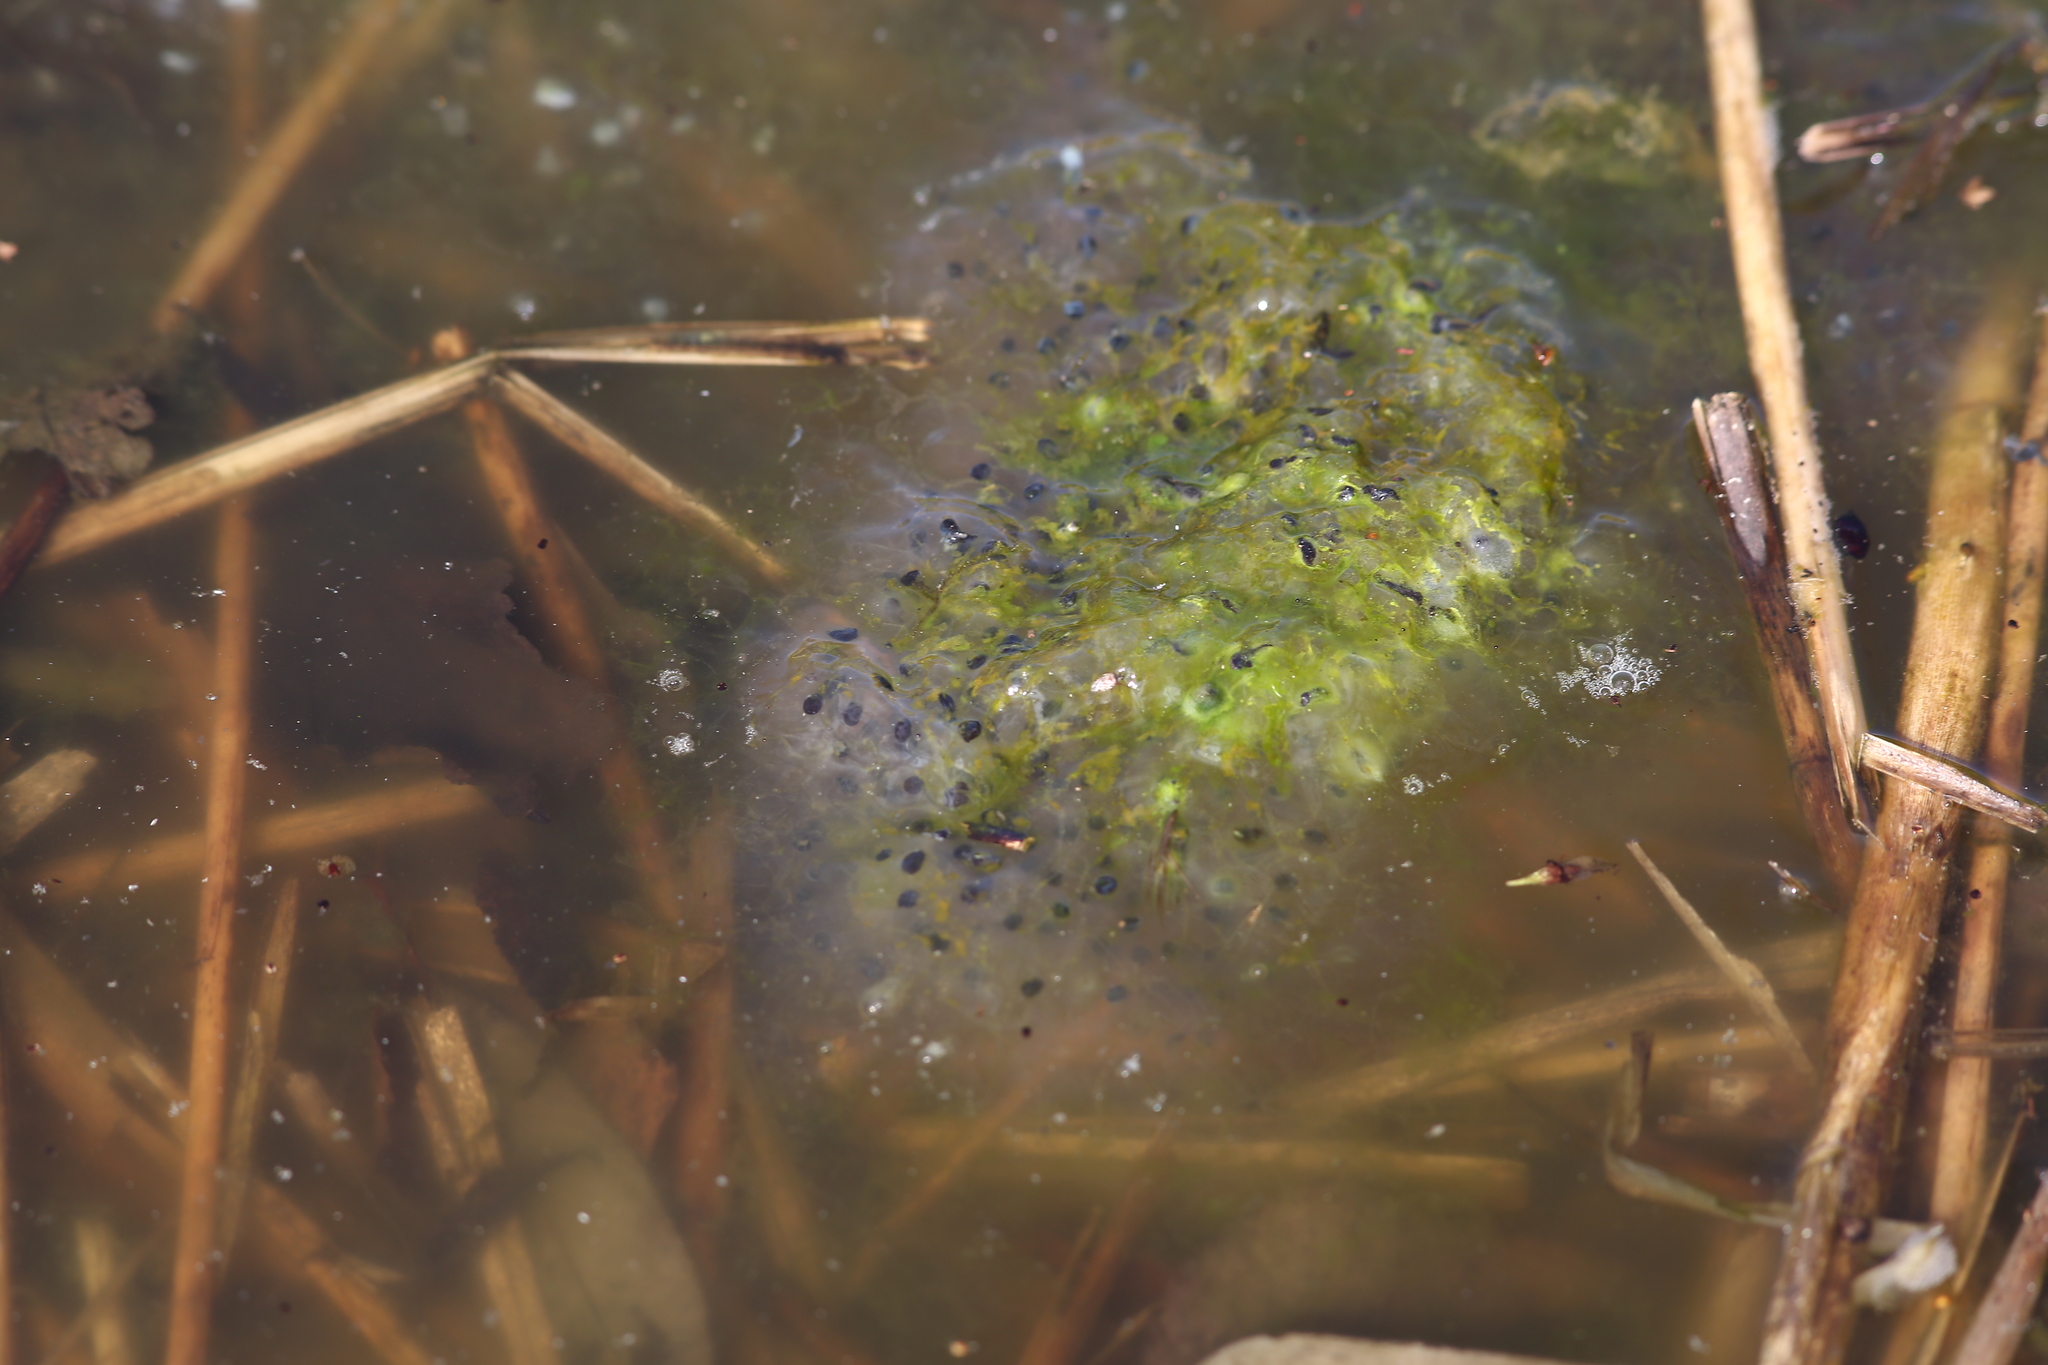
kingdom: Animalia
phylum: Chordata
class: Amphibia
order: Anura
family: Ranidae
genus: Rana
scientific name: Rana temporaria
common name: Common frog
